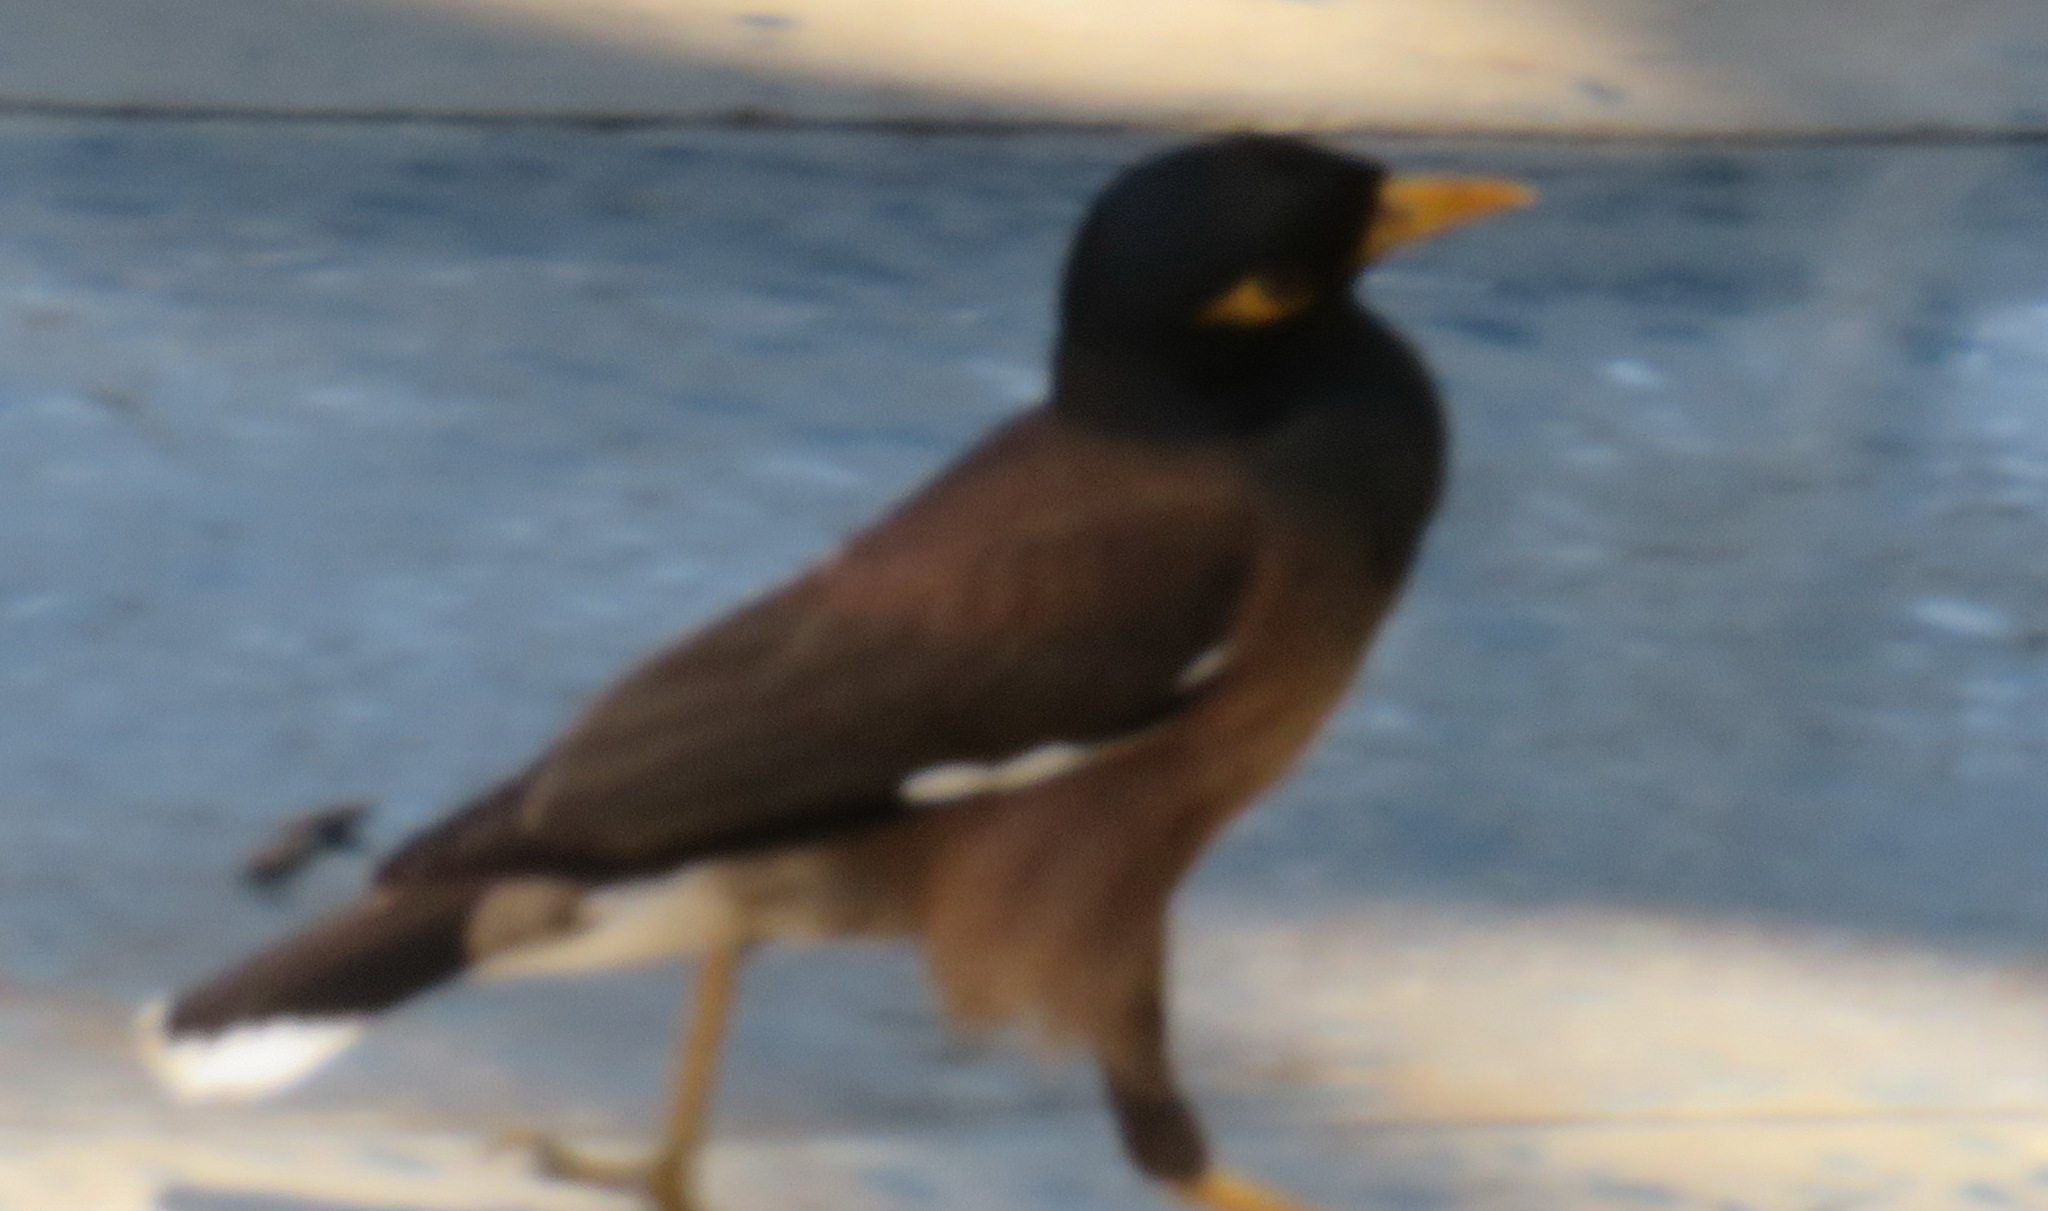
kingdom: Animalia
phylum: Chordata
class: Aves
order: Passeriformes
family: Sturnidae
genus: Acridotheres
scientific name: Acridotheres tristis
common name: Common myna
